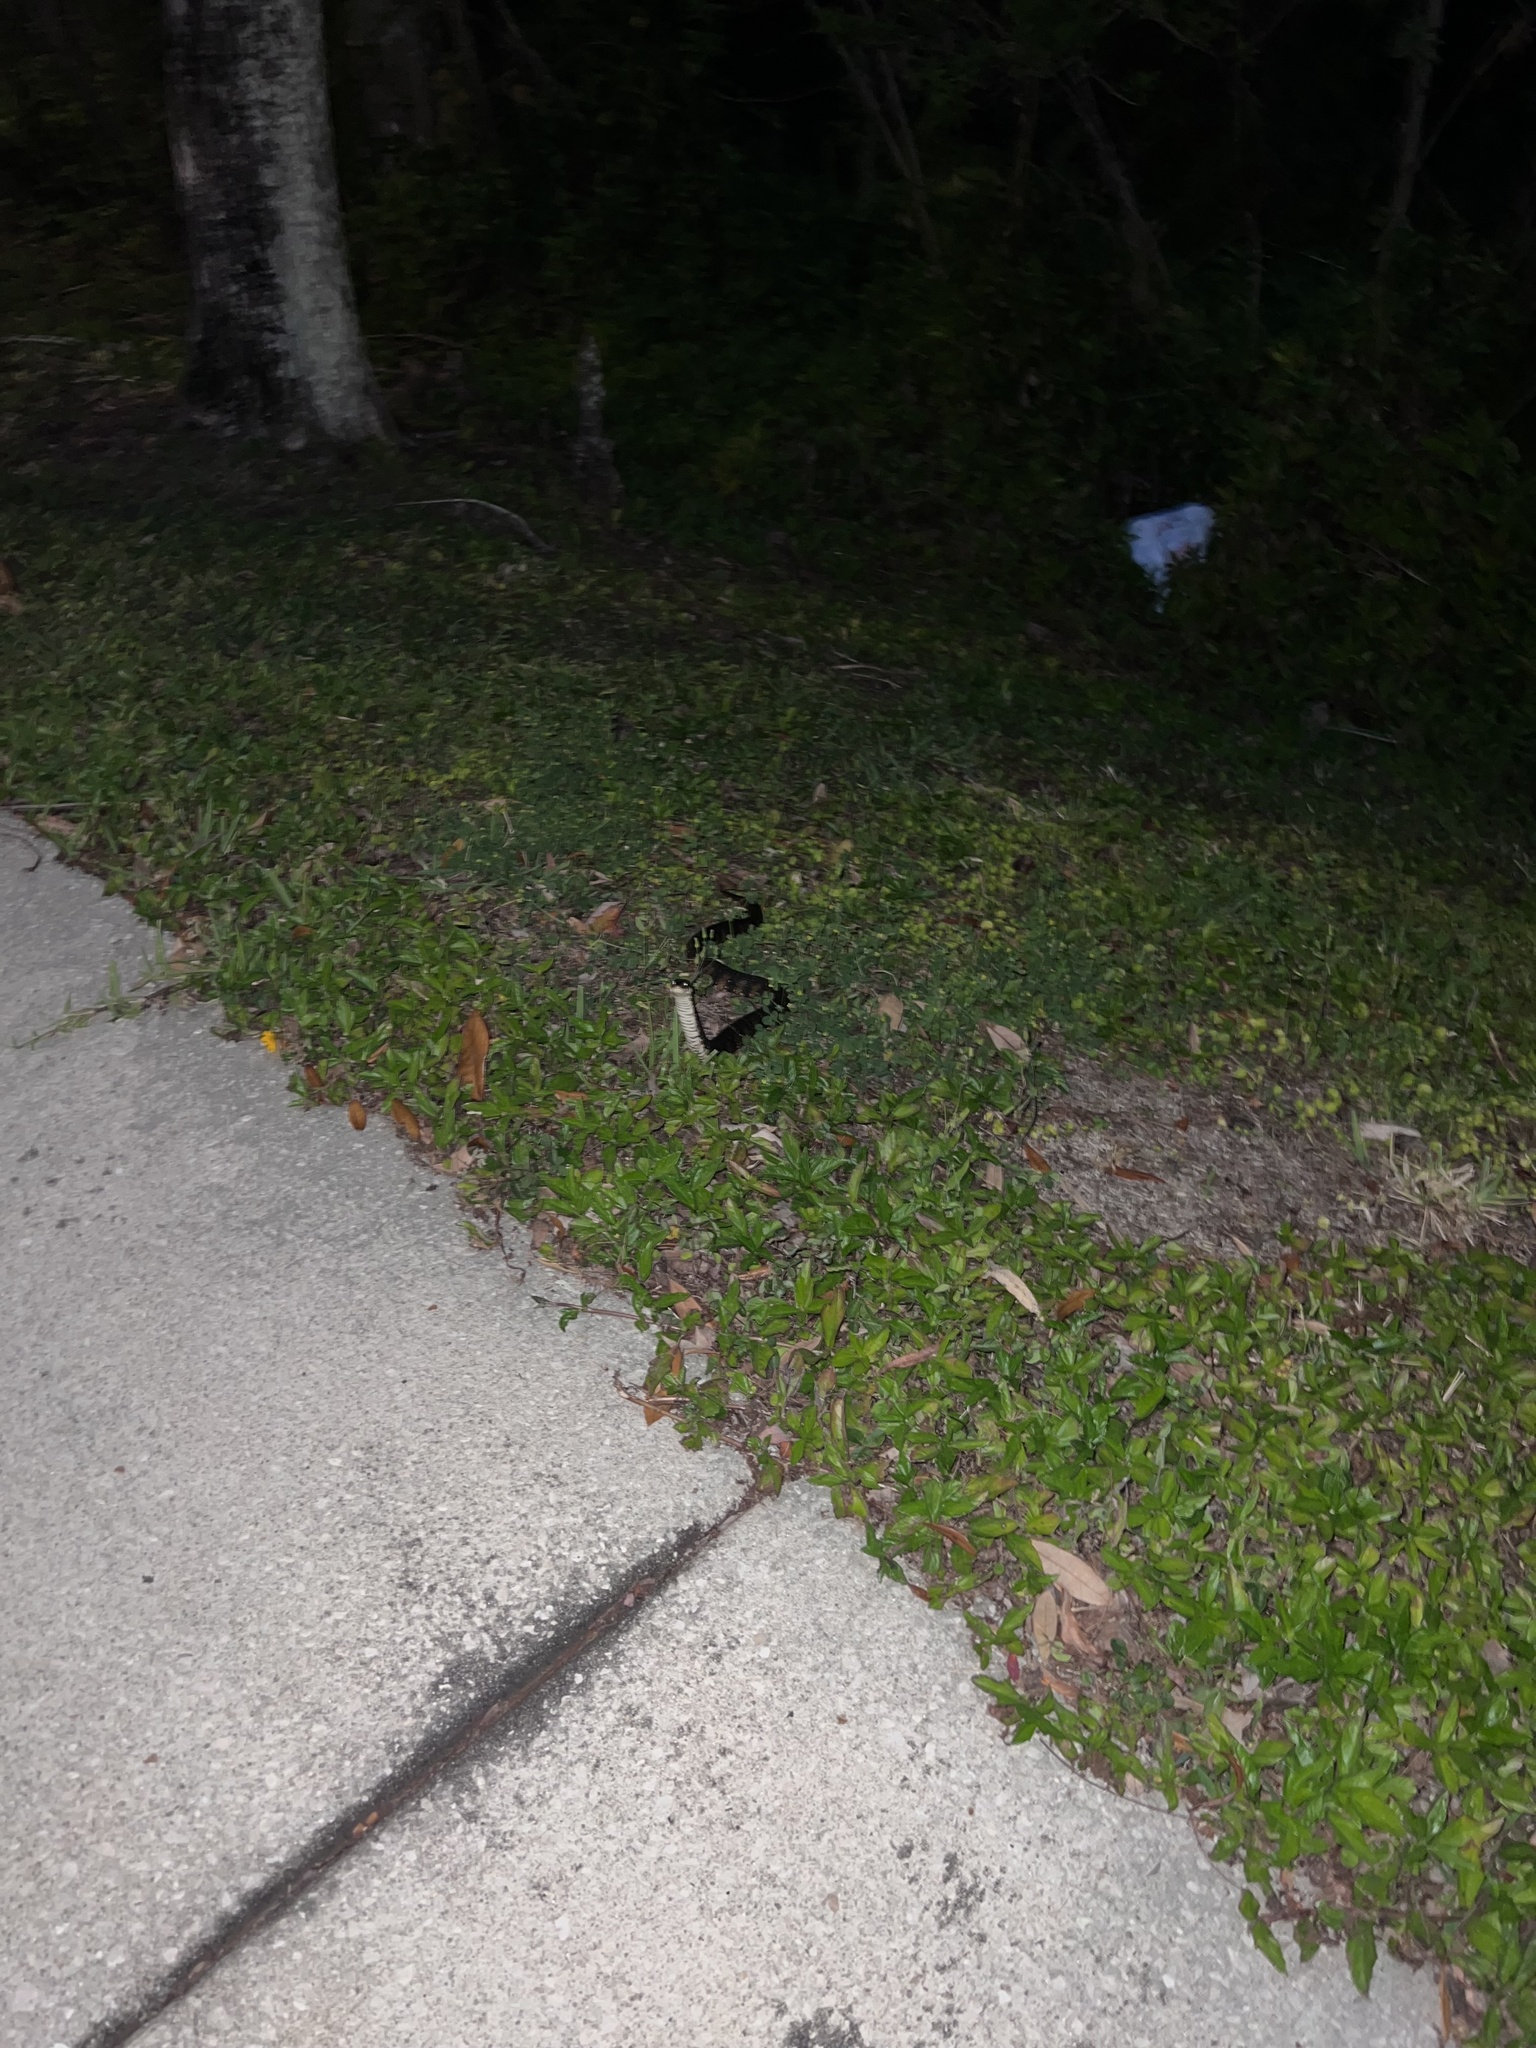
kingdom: Animalia
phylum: Chordata
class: Squamata
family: Colubridae
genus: Nerodia
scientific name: Nerodia fasciata
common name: Southern water snake
